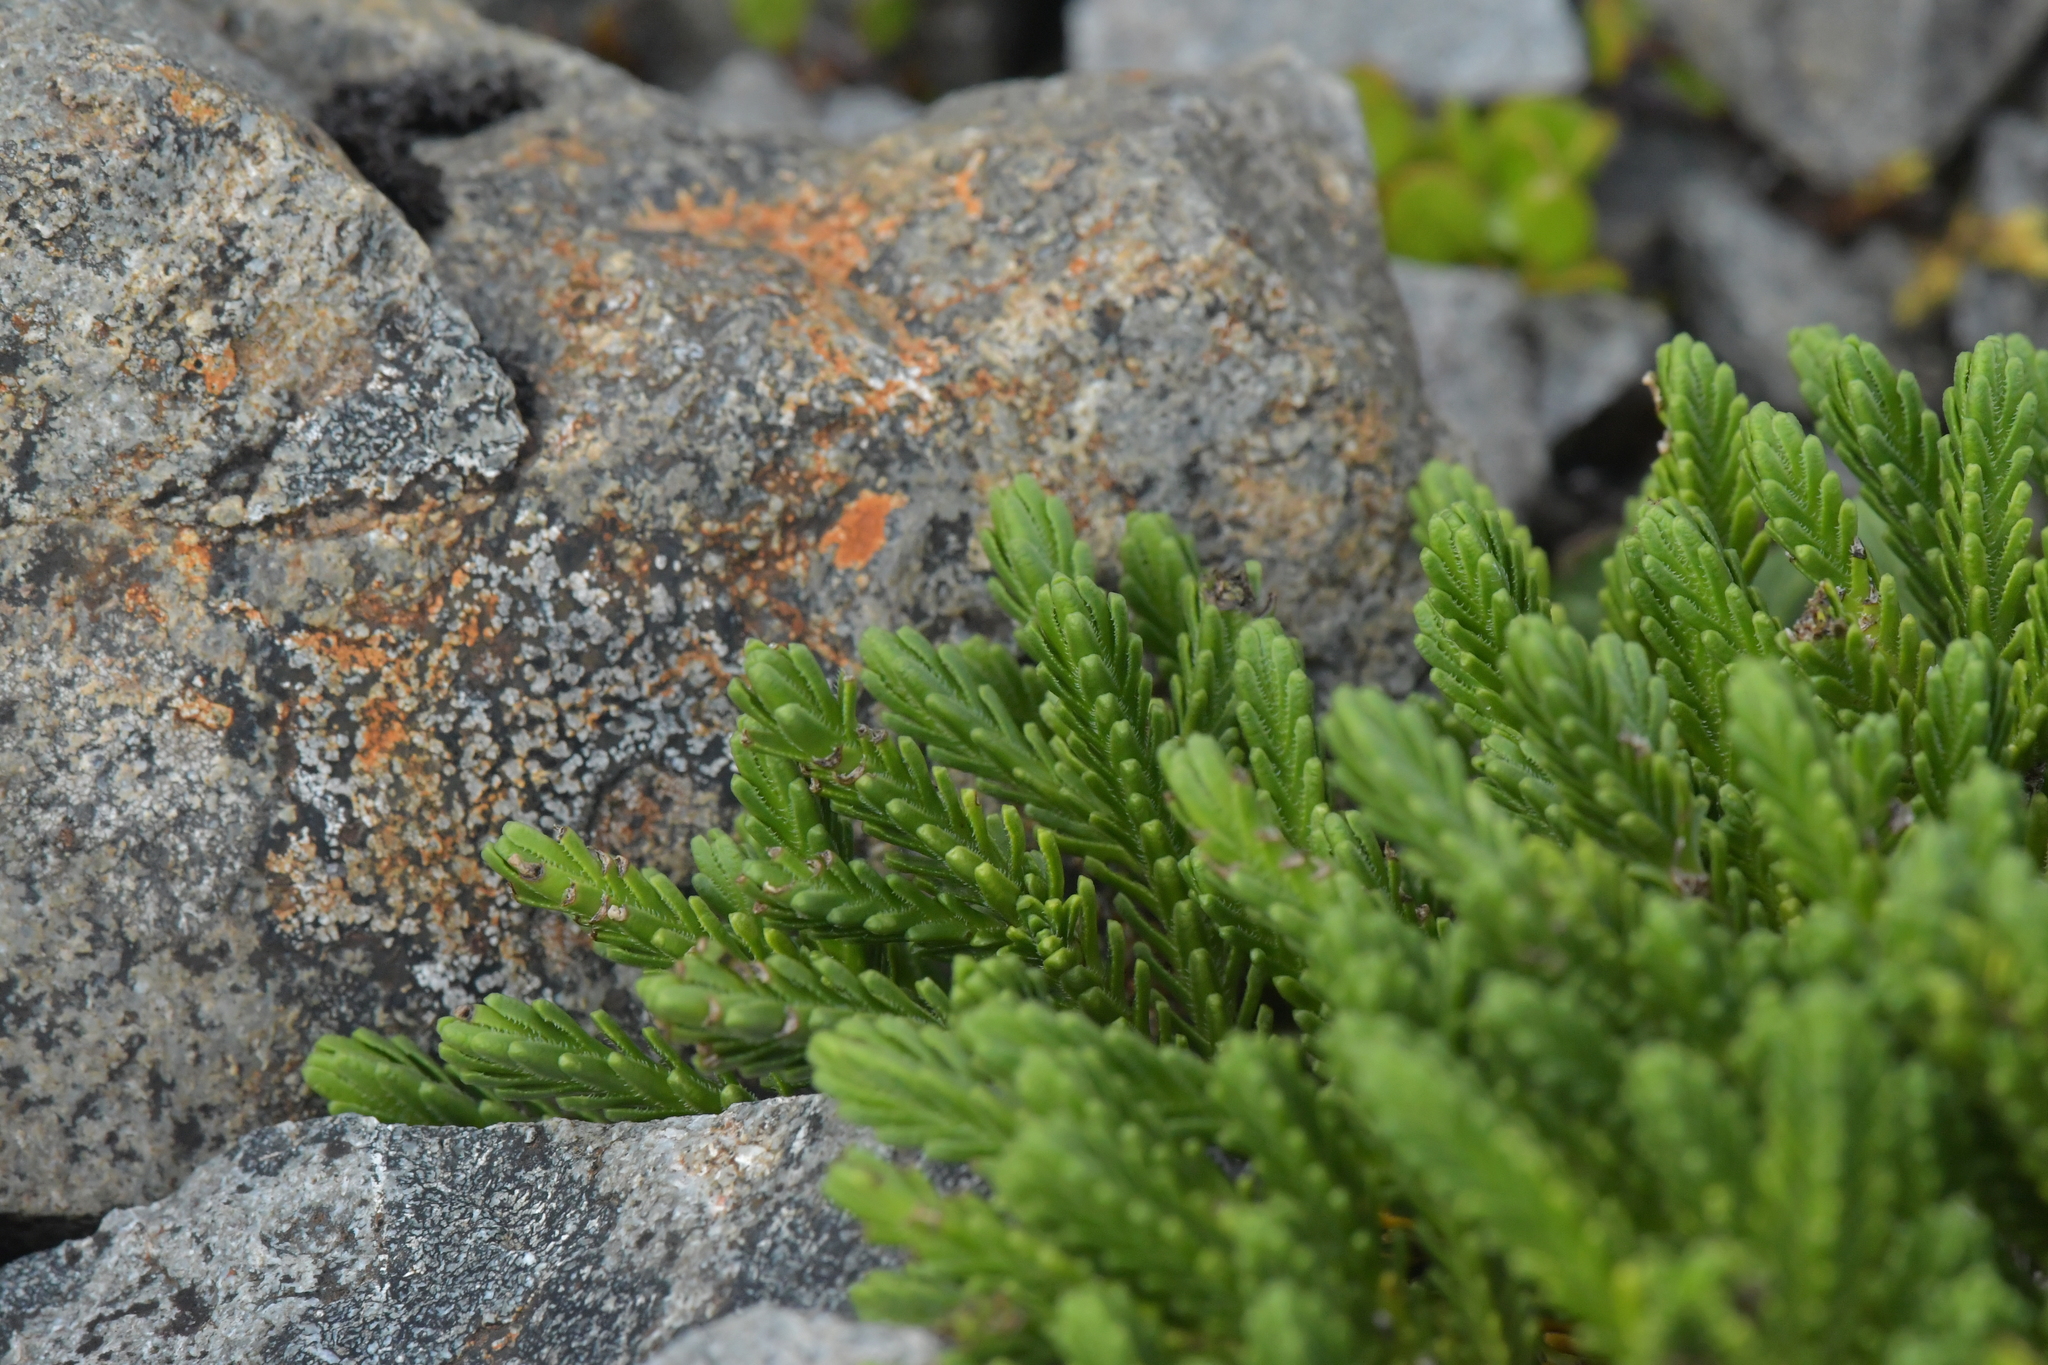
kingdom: Plantae
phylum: Tracheophyta
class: Magnoliopsida
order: Lamiales
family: Plantaginaceae
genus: Veronica
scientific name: Veronica hookeri
